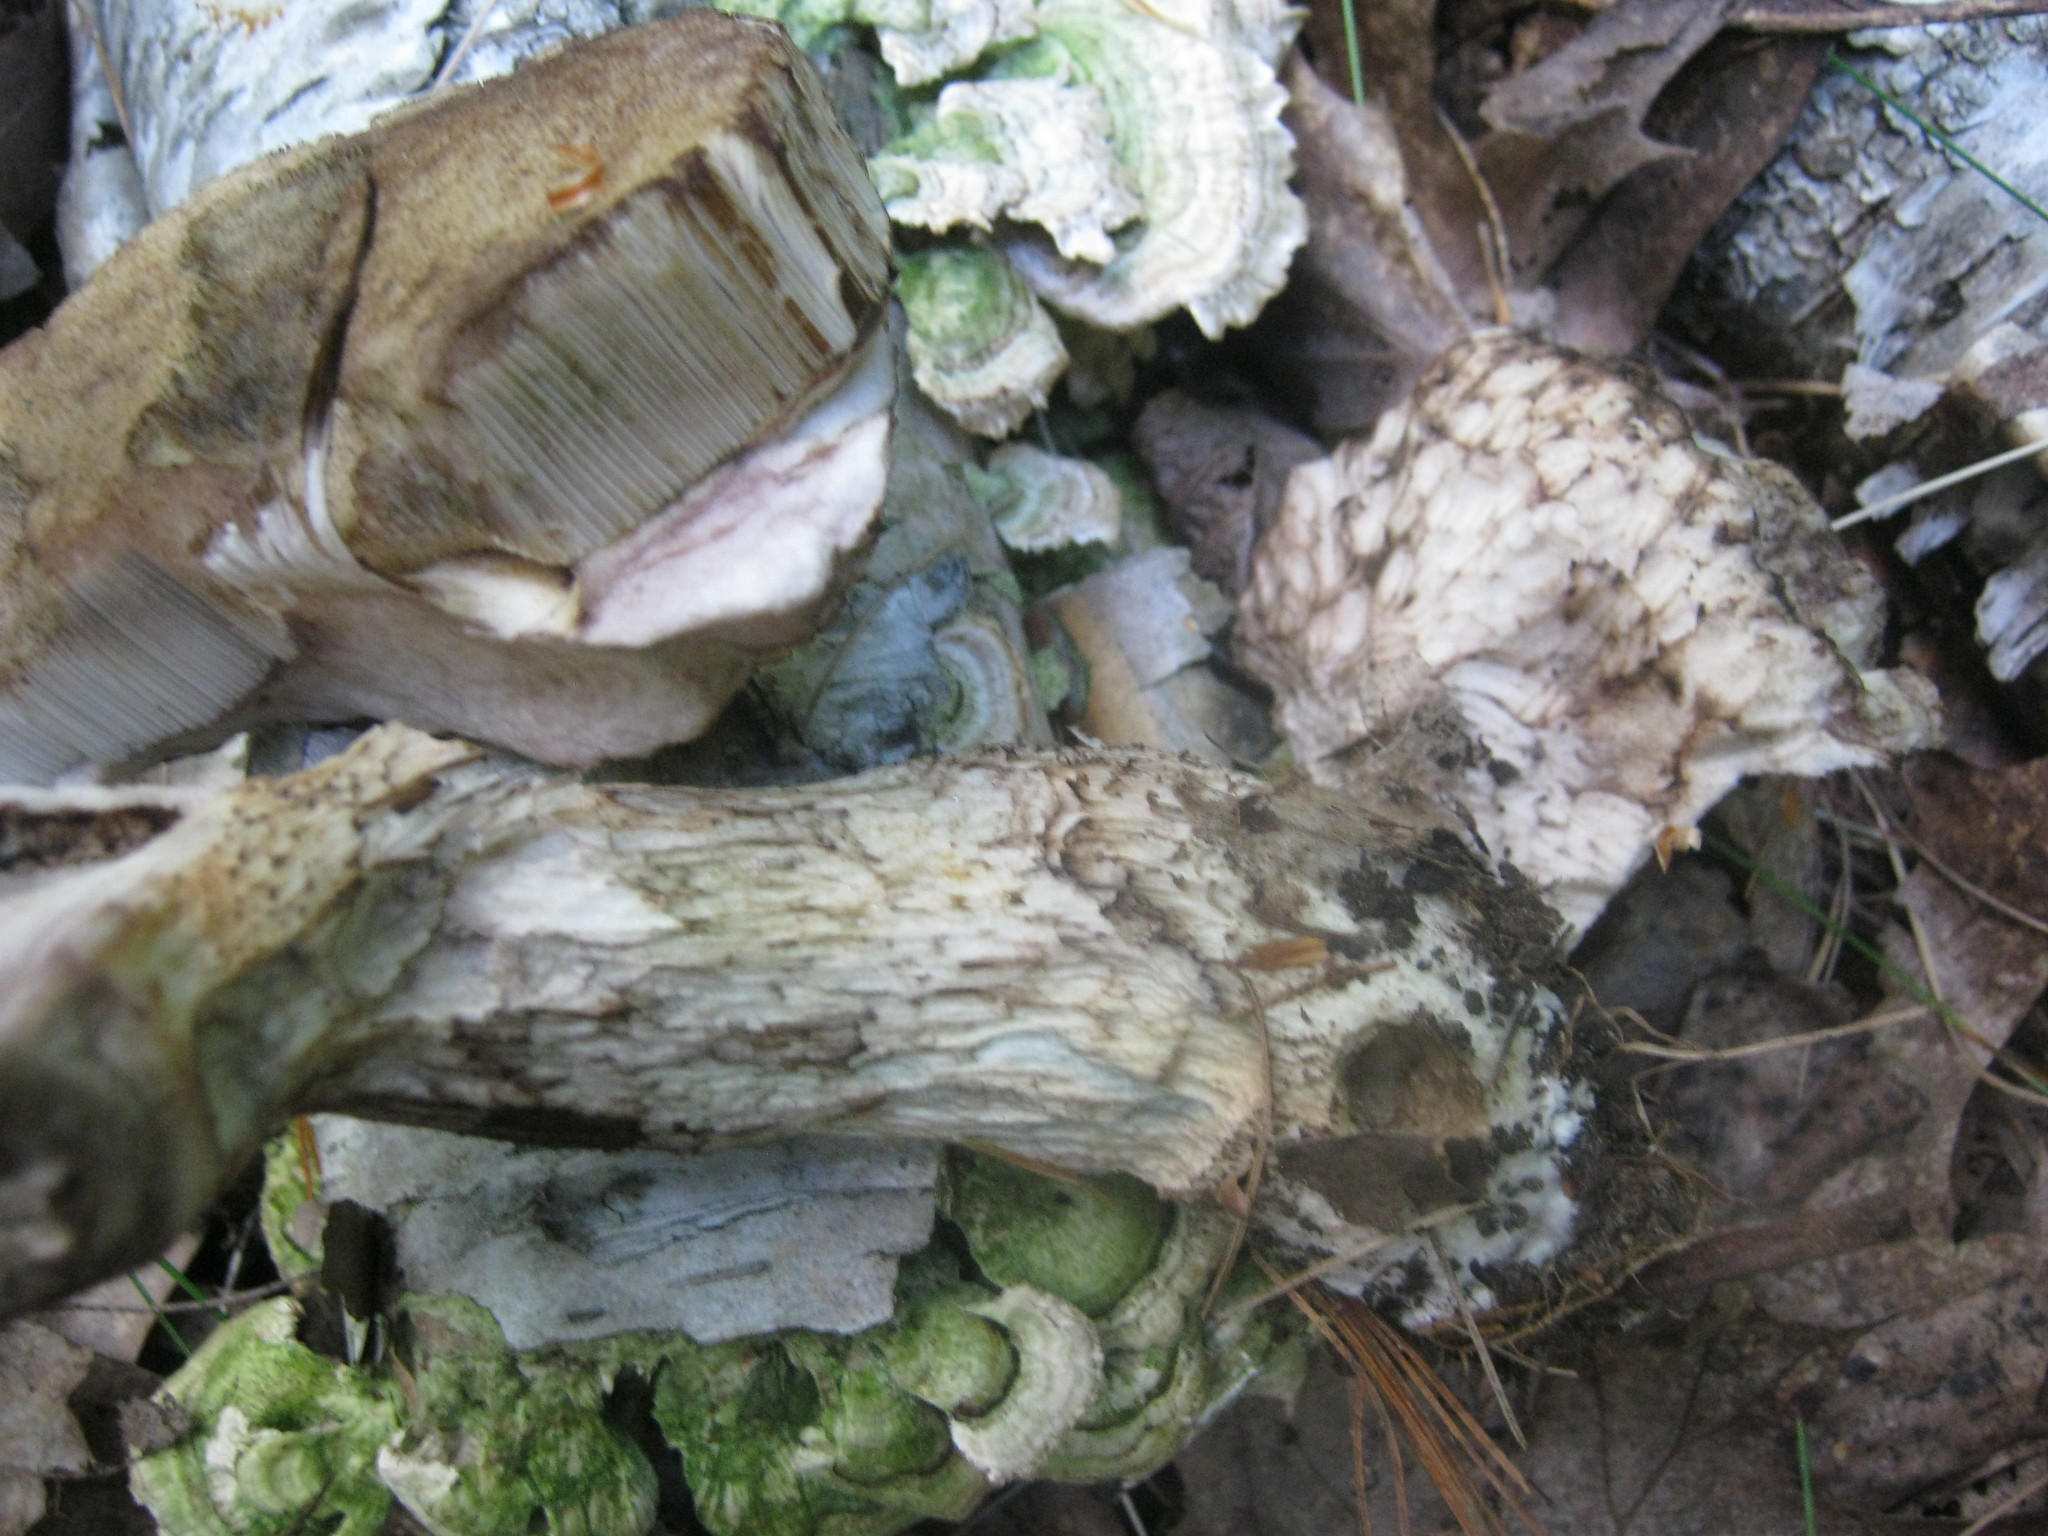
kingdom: Fungi
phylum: Basidiomycota
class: Agaricomycetes
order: Boletales
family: Boletaceae
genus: Leccinum
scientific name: Leccinum insigne
